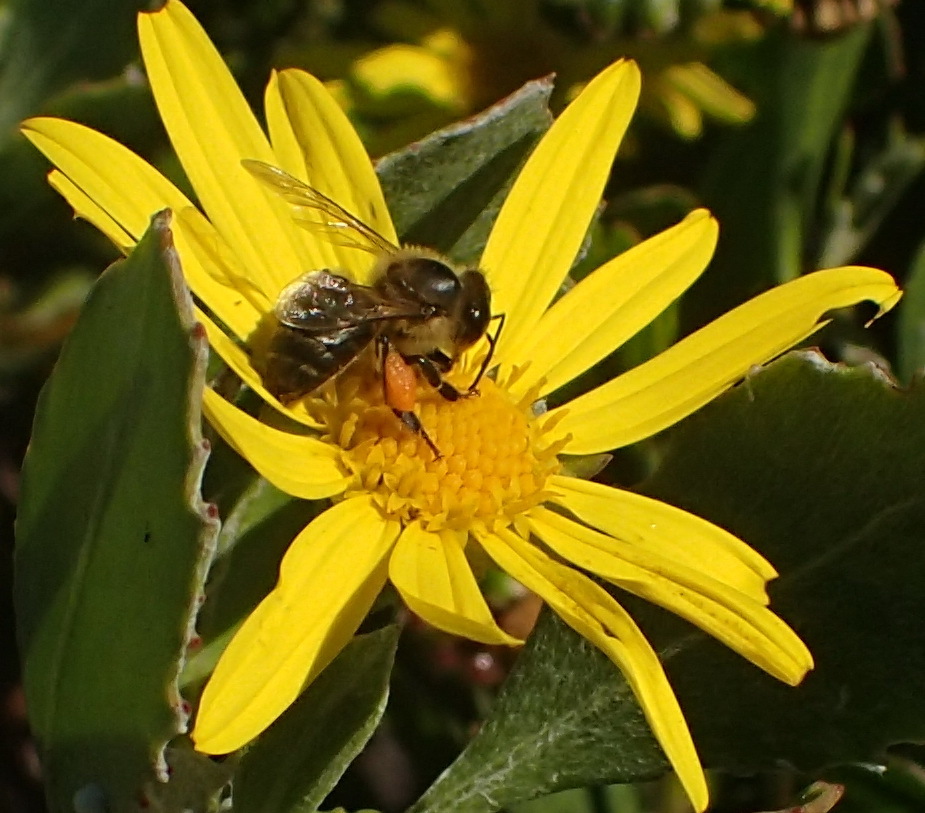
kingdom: Animalia
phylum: Arthropoda
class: Insecta
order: Hymenoptera
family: Apidae
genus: Apis
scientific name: Apis mellifera
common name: Honey bee
